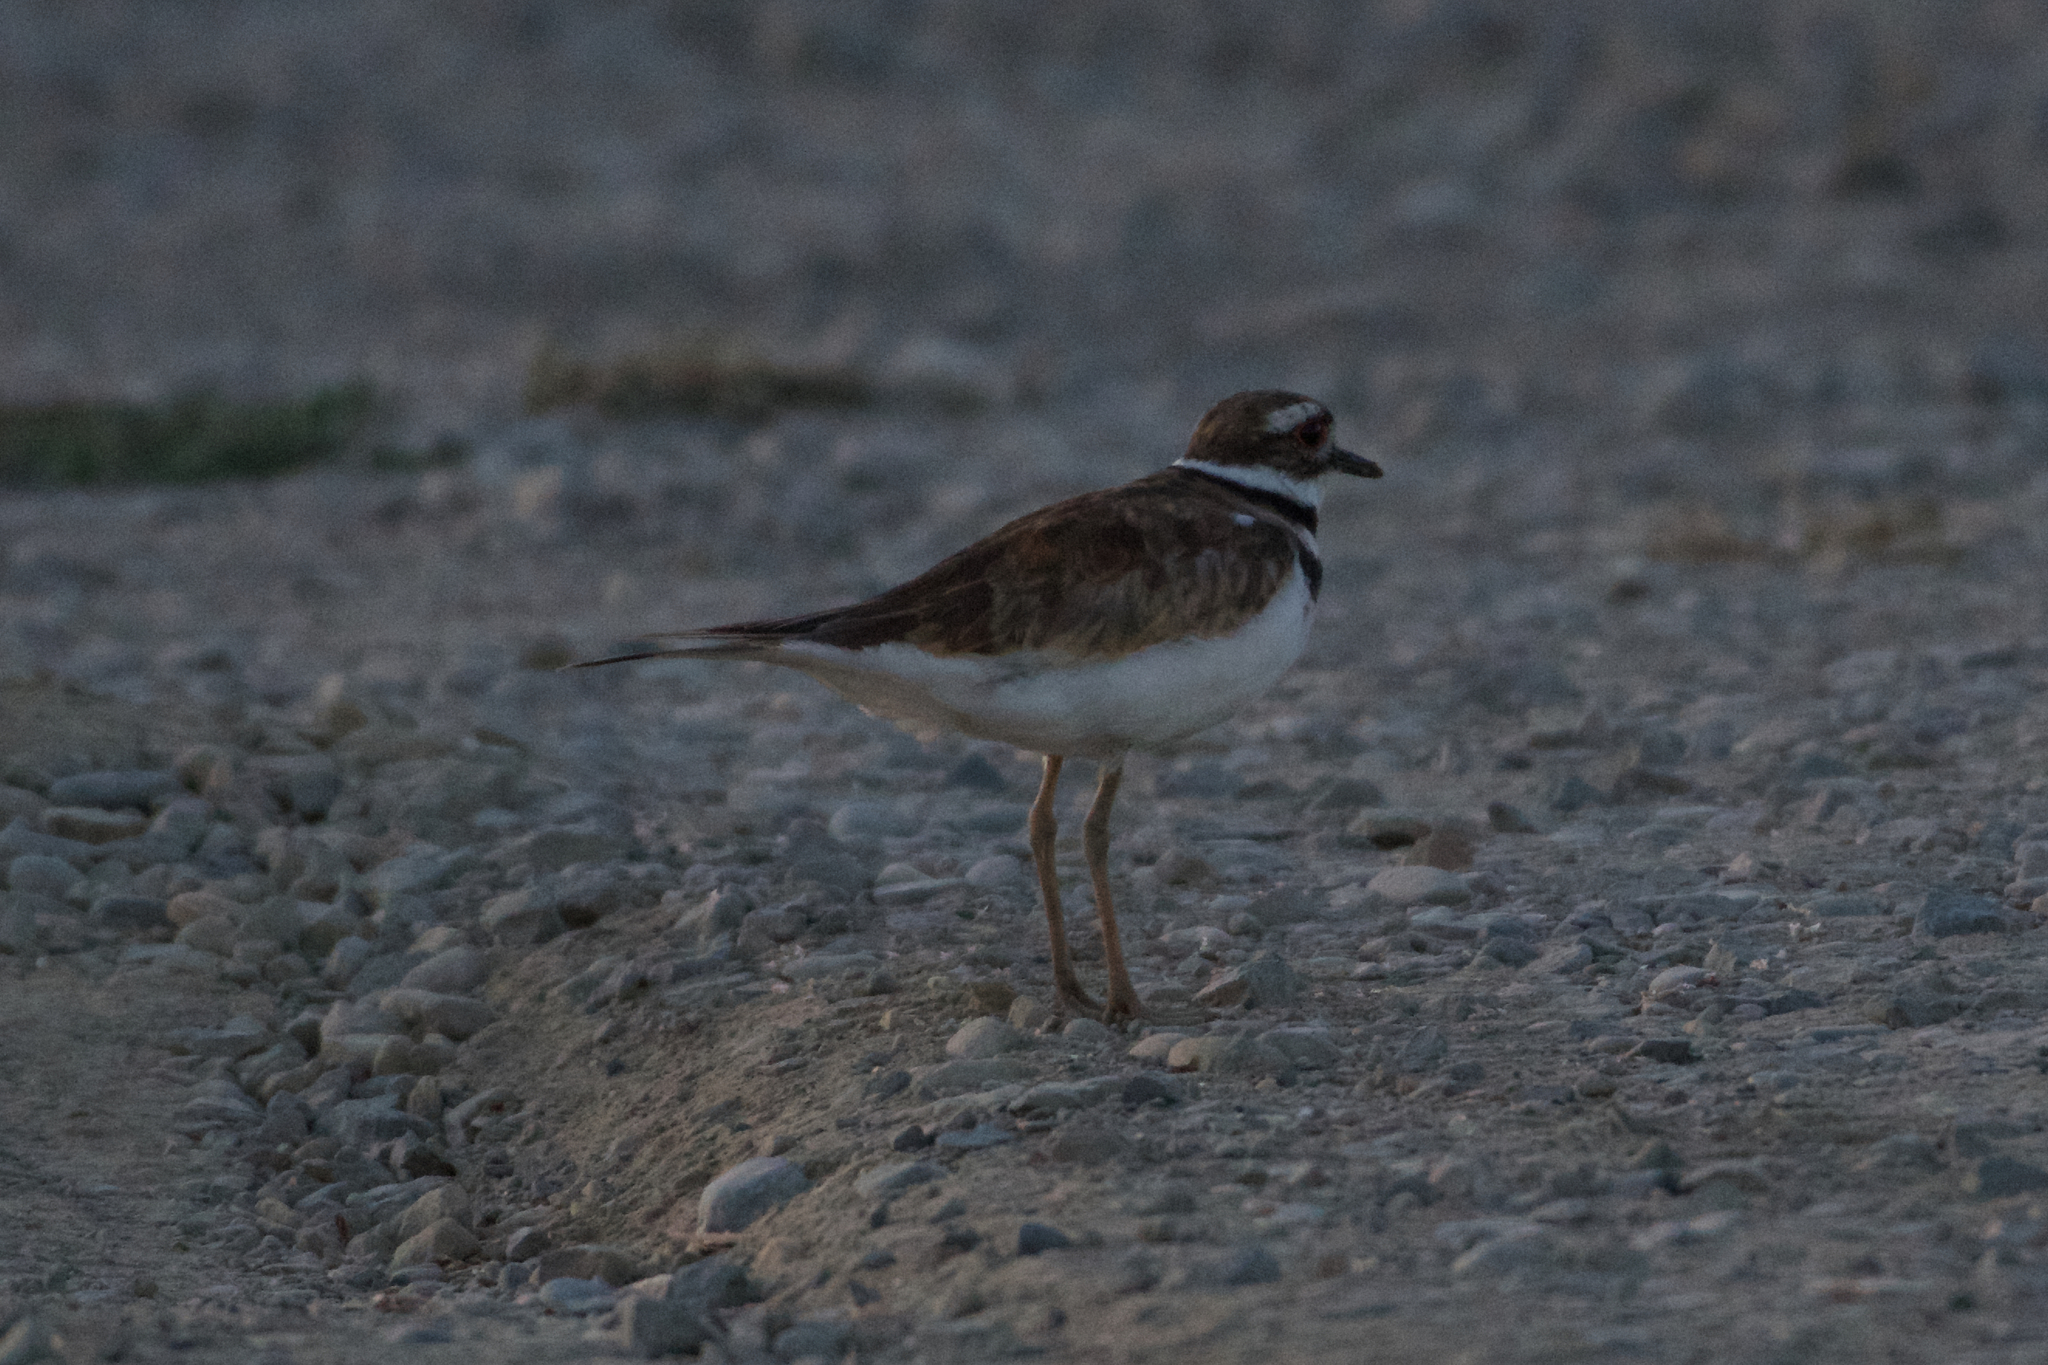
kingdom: Animalia
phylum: Chordata
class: Aves
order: Charadriiformes
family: Charadriidae
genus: Charadrius
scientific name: Charadrius vociferus
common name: Killdeer
